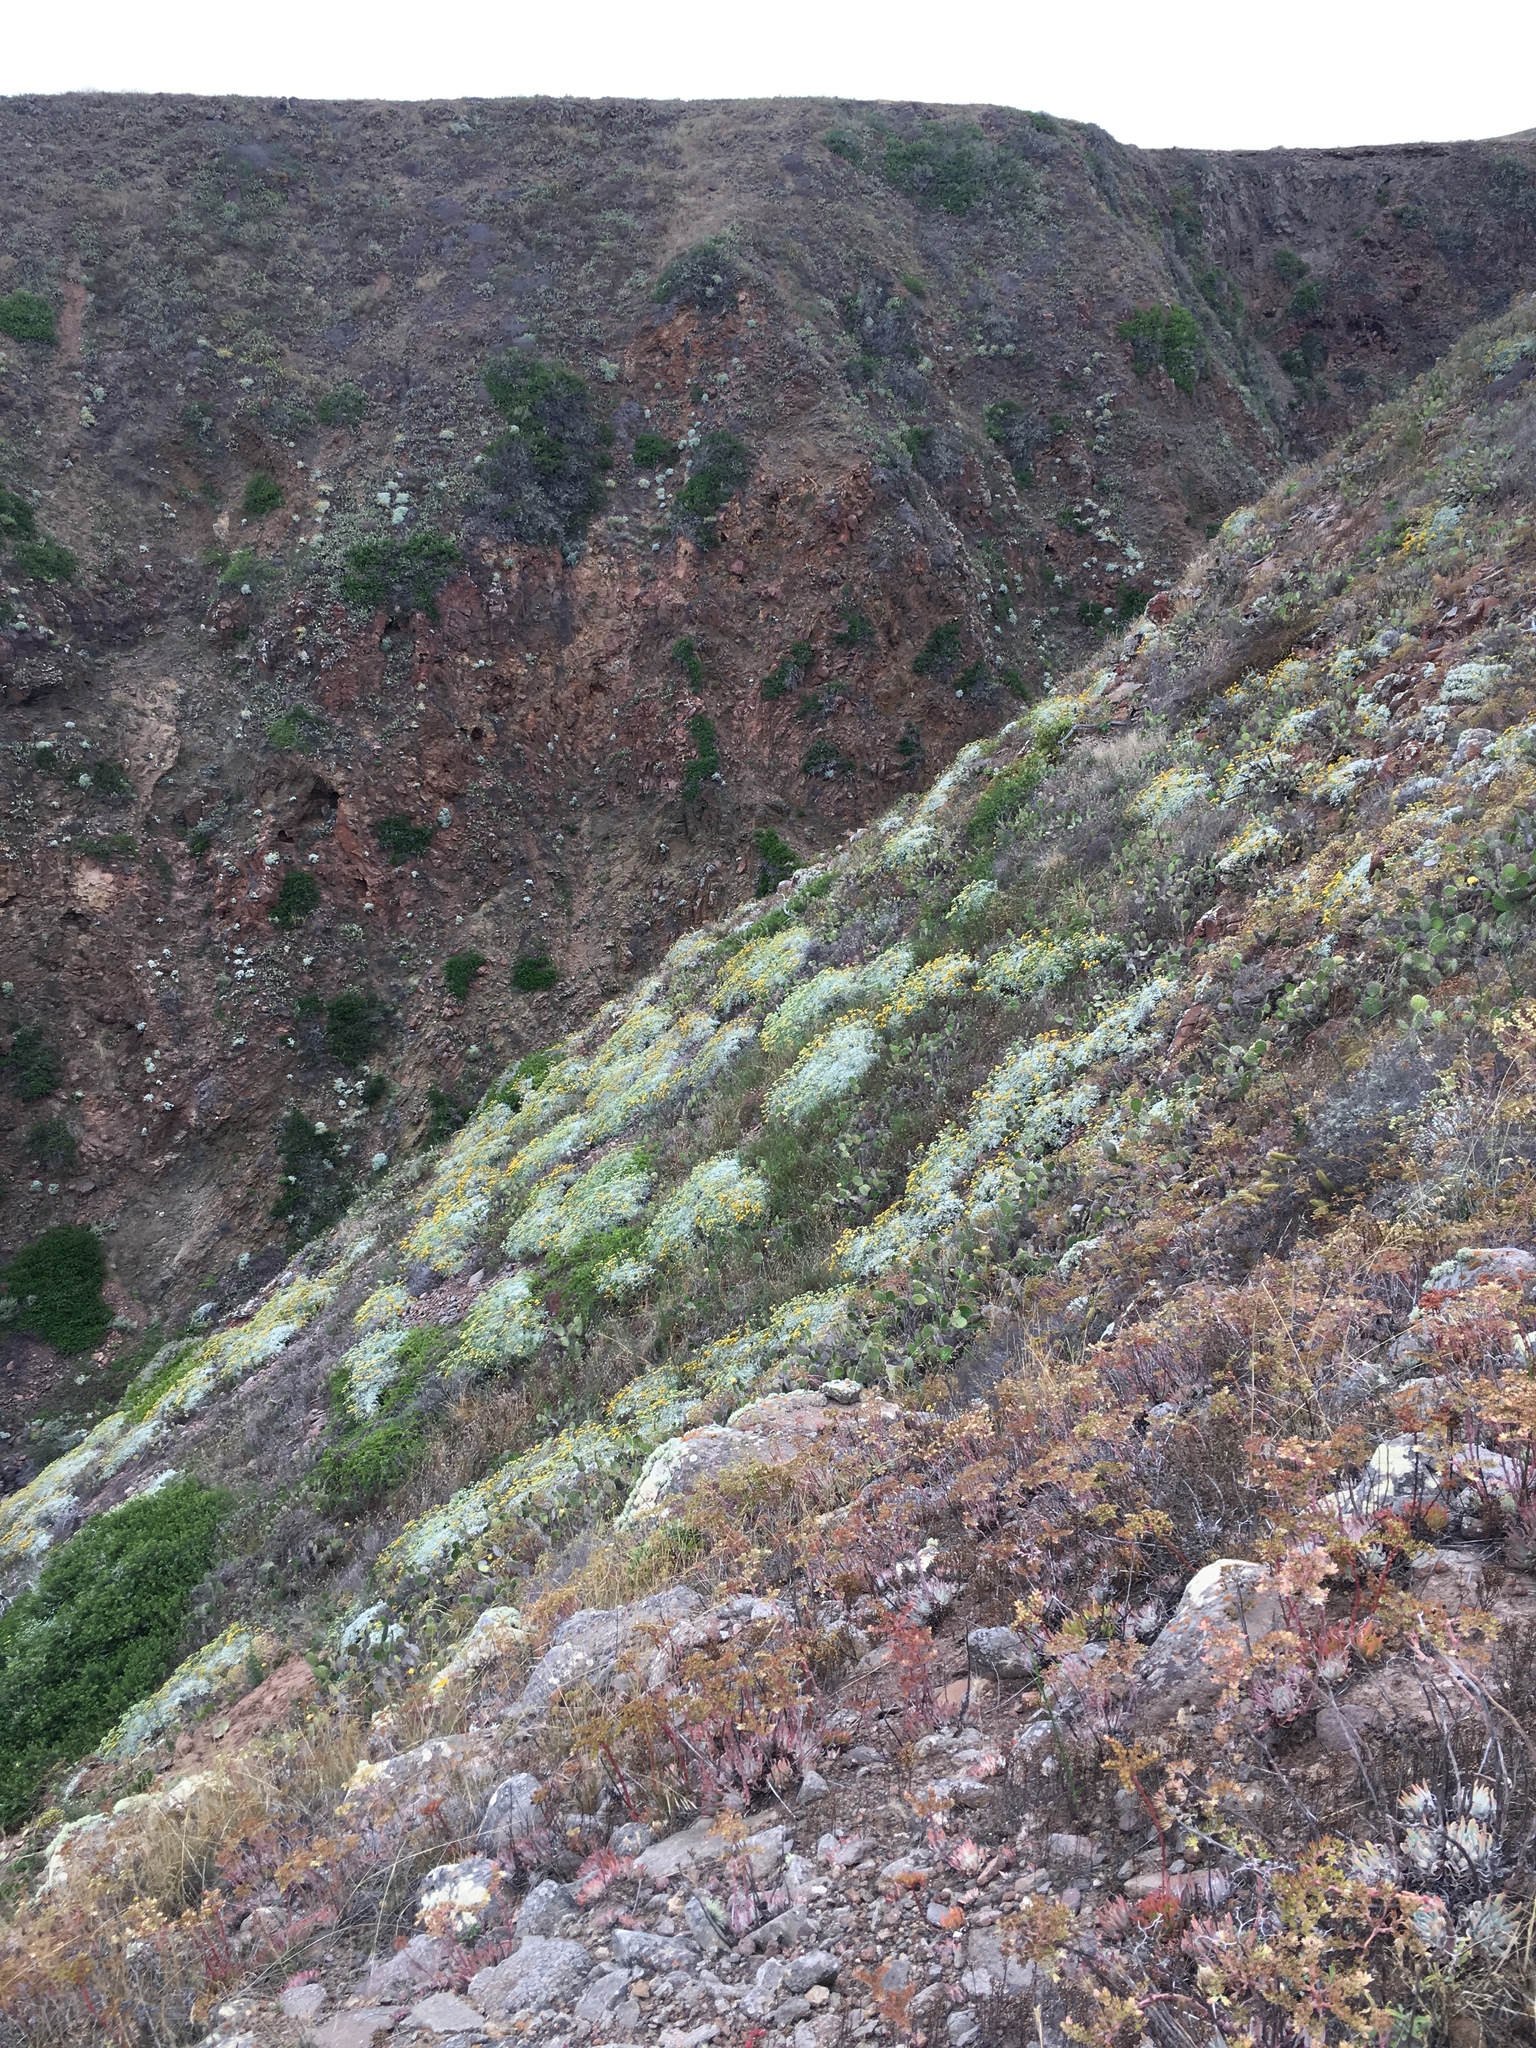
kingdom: Plantae
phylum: Tracheophyta
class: Magnoliopsida
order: Asterales
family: Asteraceae
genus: Constancea
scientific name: Constancea nevinii
